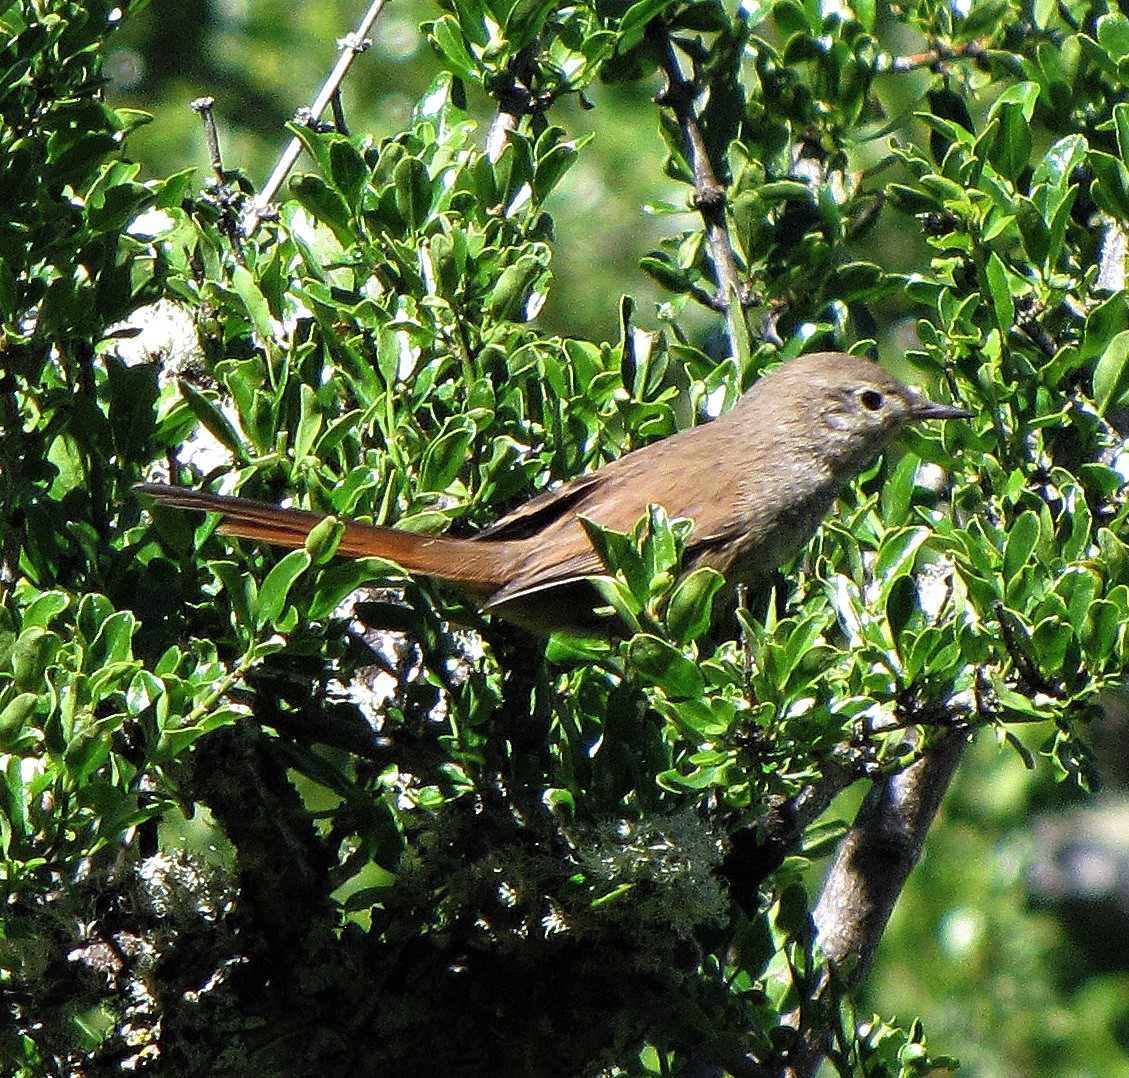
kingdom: Animalia
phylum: Chordata
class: Aves
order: Passeriformes
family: Furnariidae
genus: Asthenes
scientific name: Asthenes pyrrholeuca
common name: Sharp-billed canastero
